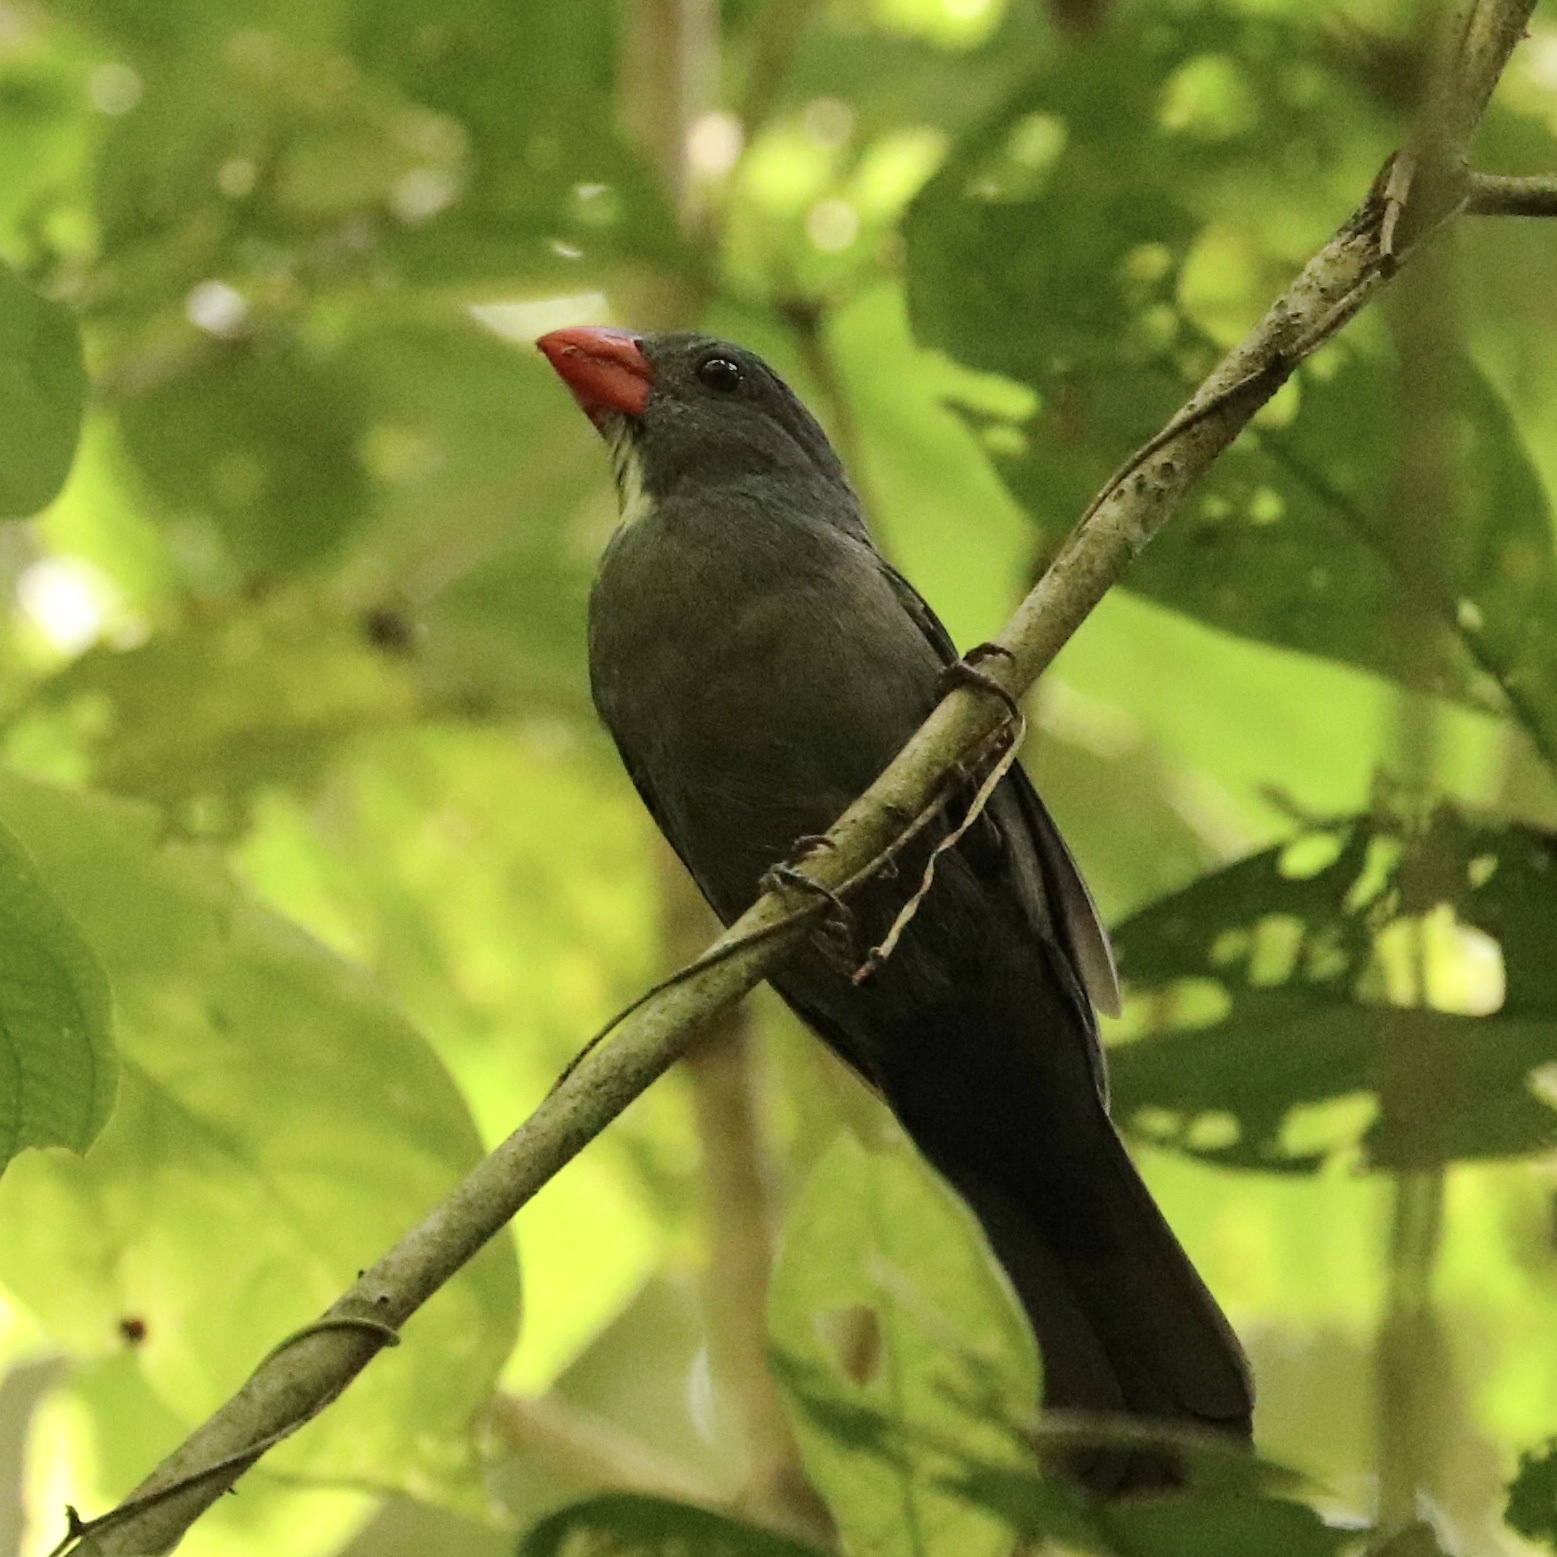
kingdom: Animalia
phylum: Chordata
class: Aves
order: Passeriformes
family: Thraupidae
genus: Saltator
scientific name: Saltator grossus
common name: Slate-colored grosbeak
